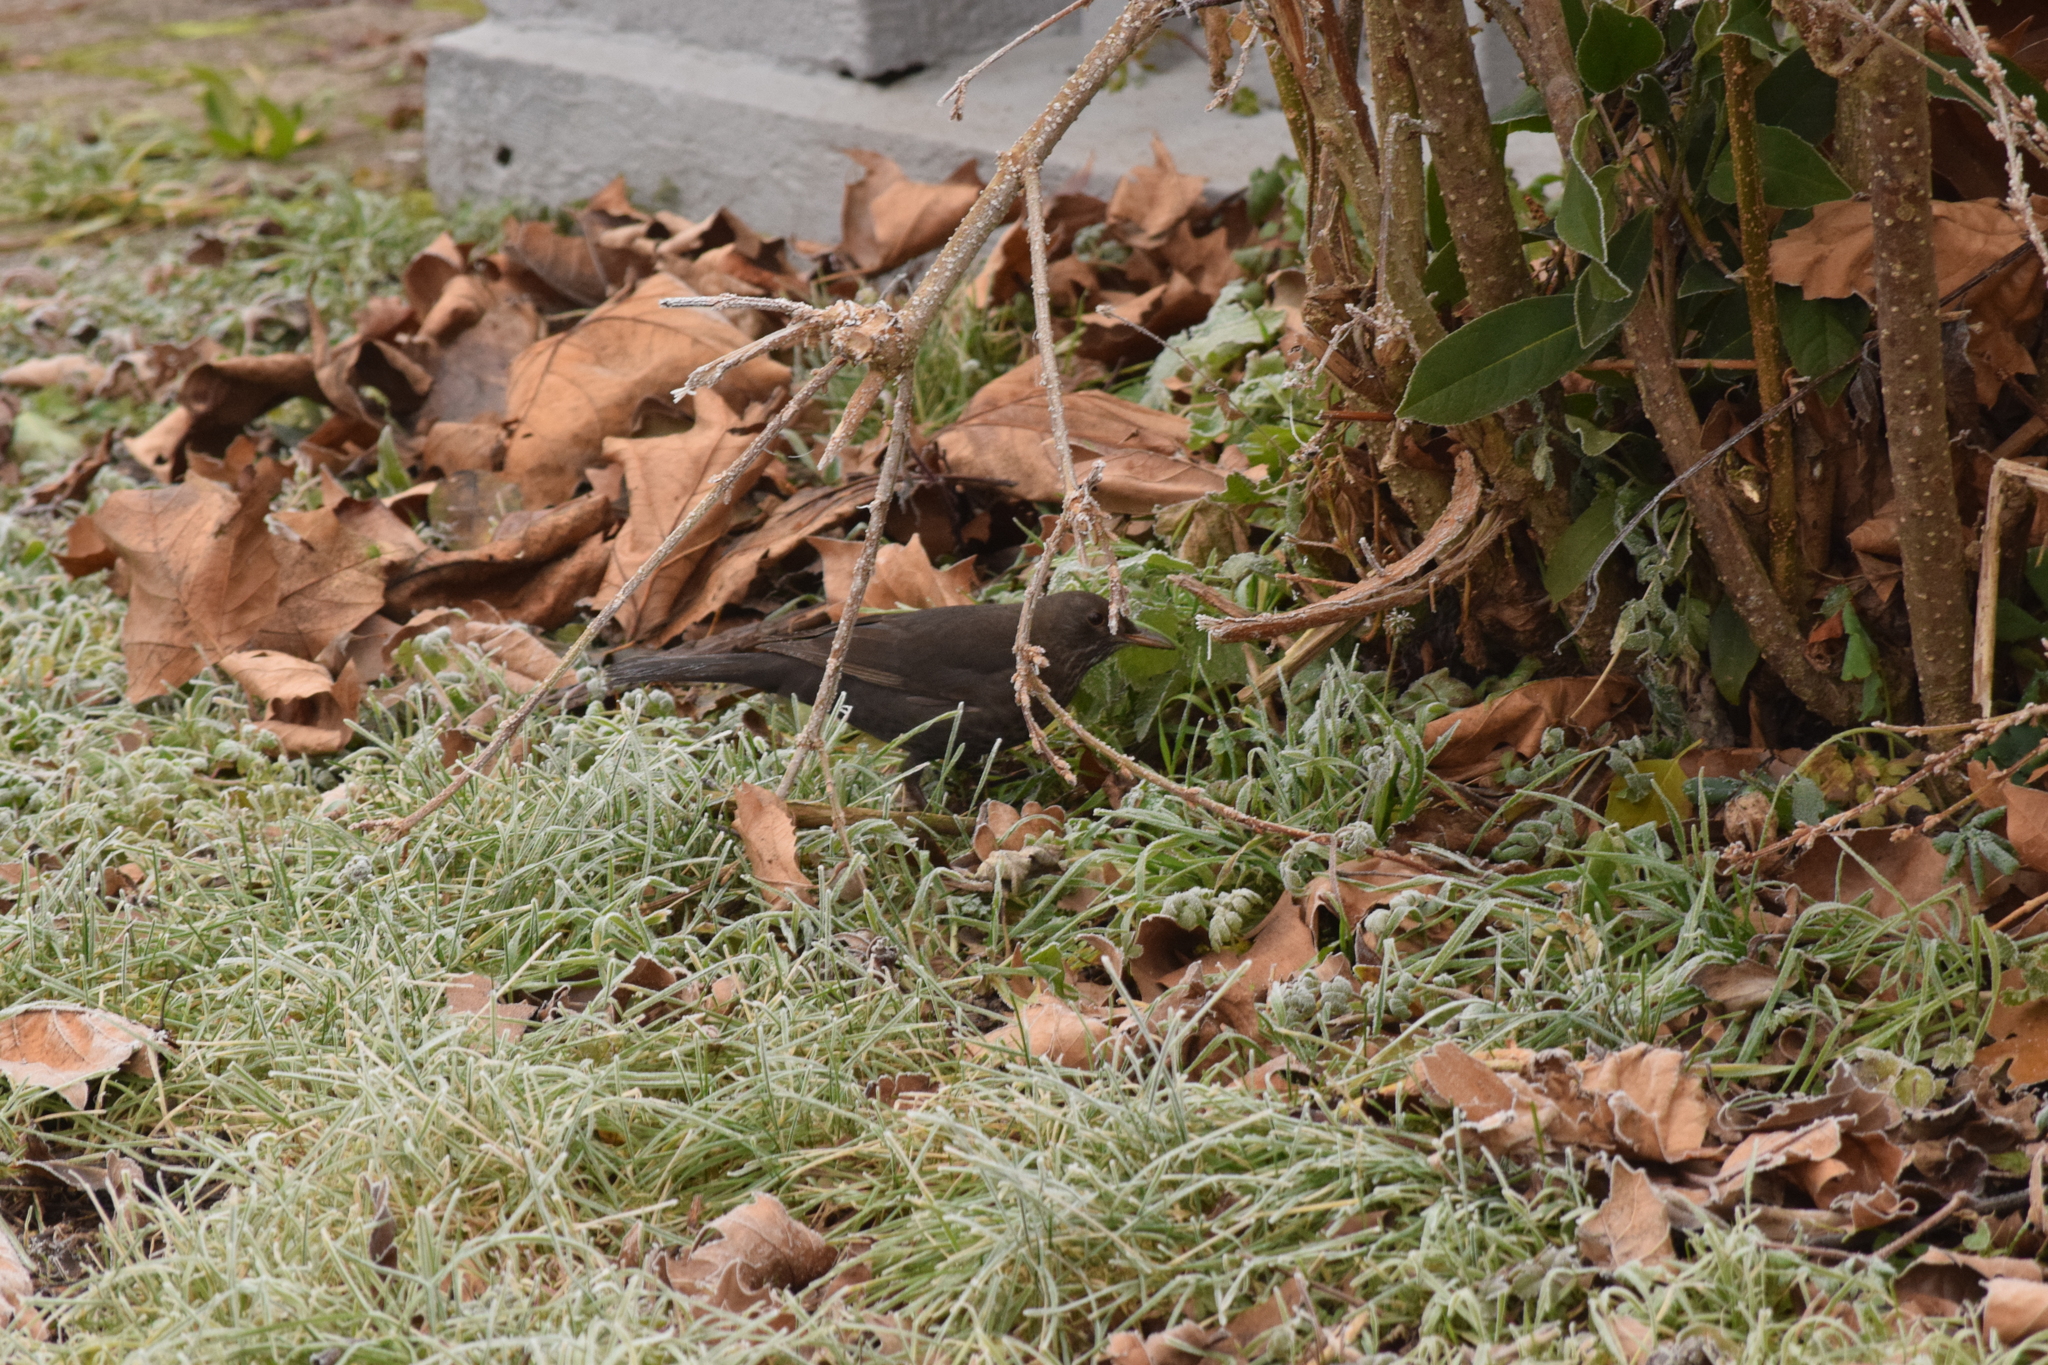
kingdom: Animalia
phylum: Chordata
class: Aves
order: Passeriformes
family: Turdidae
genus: Turdus
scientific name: Turdus merula
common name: Common blackbird
